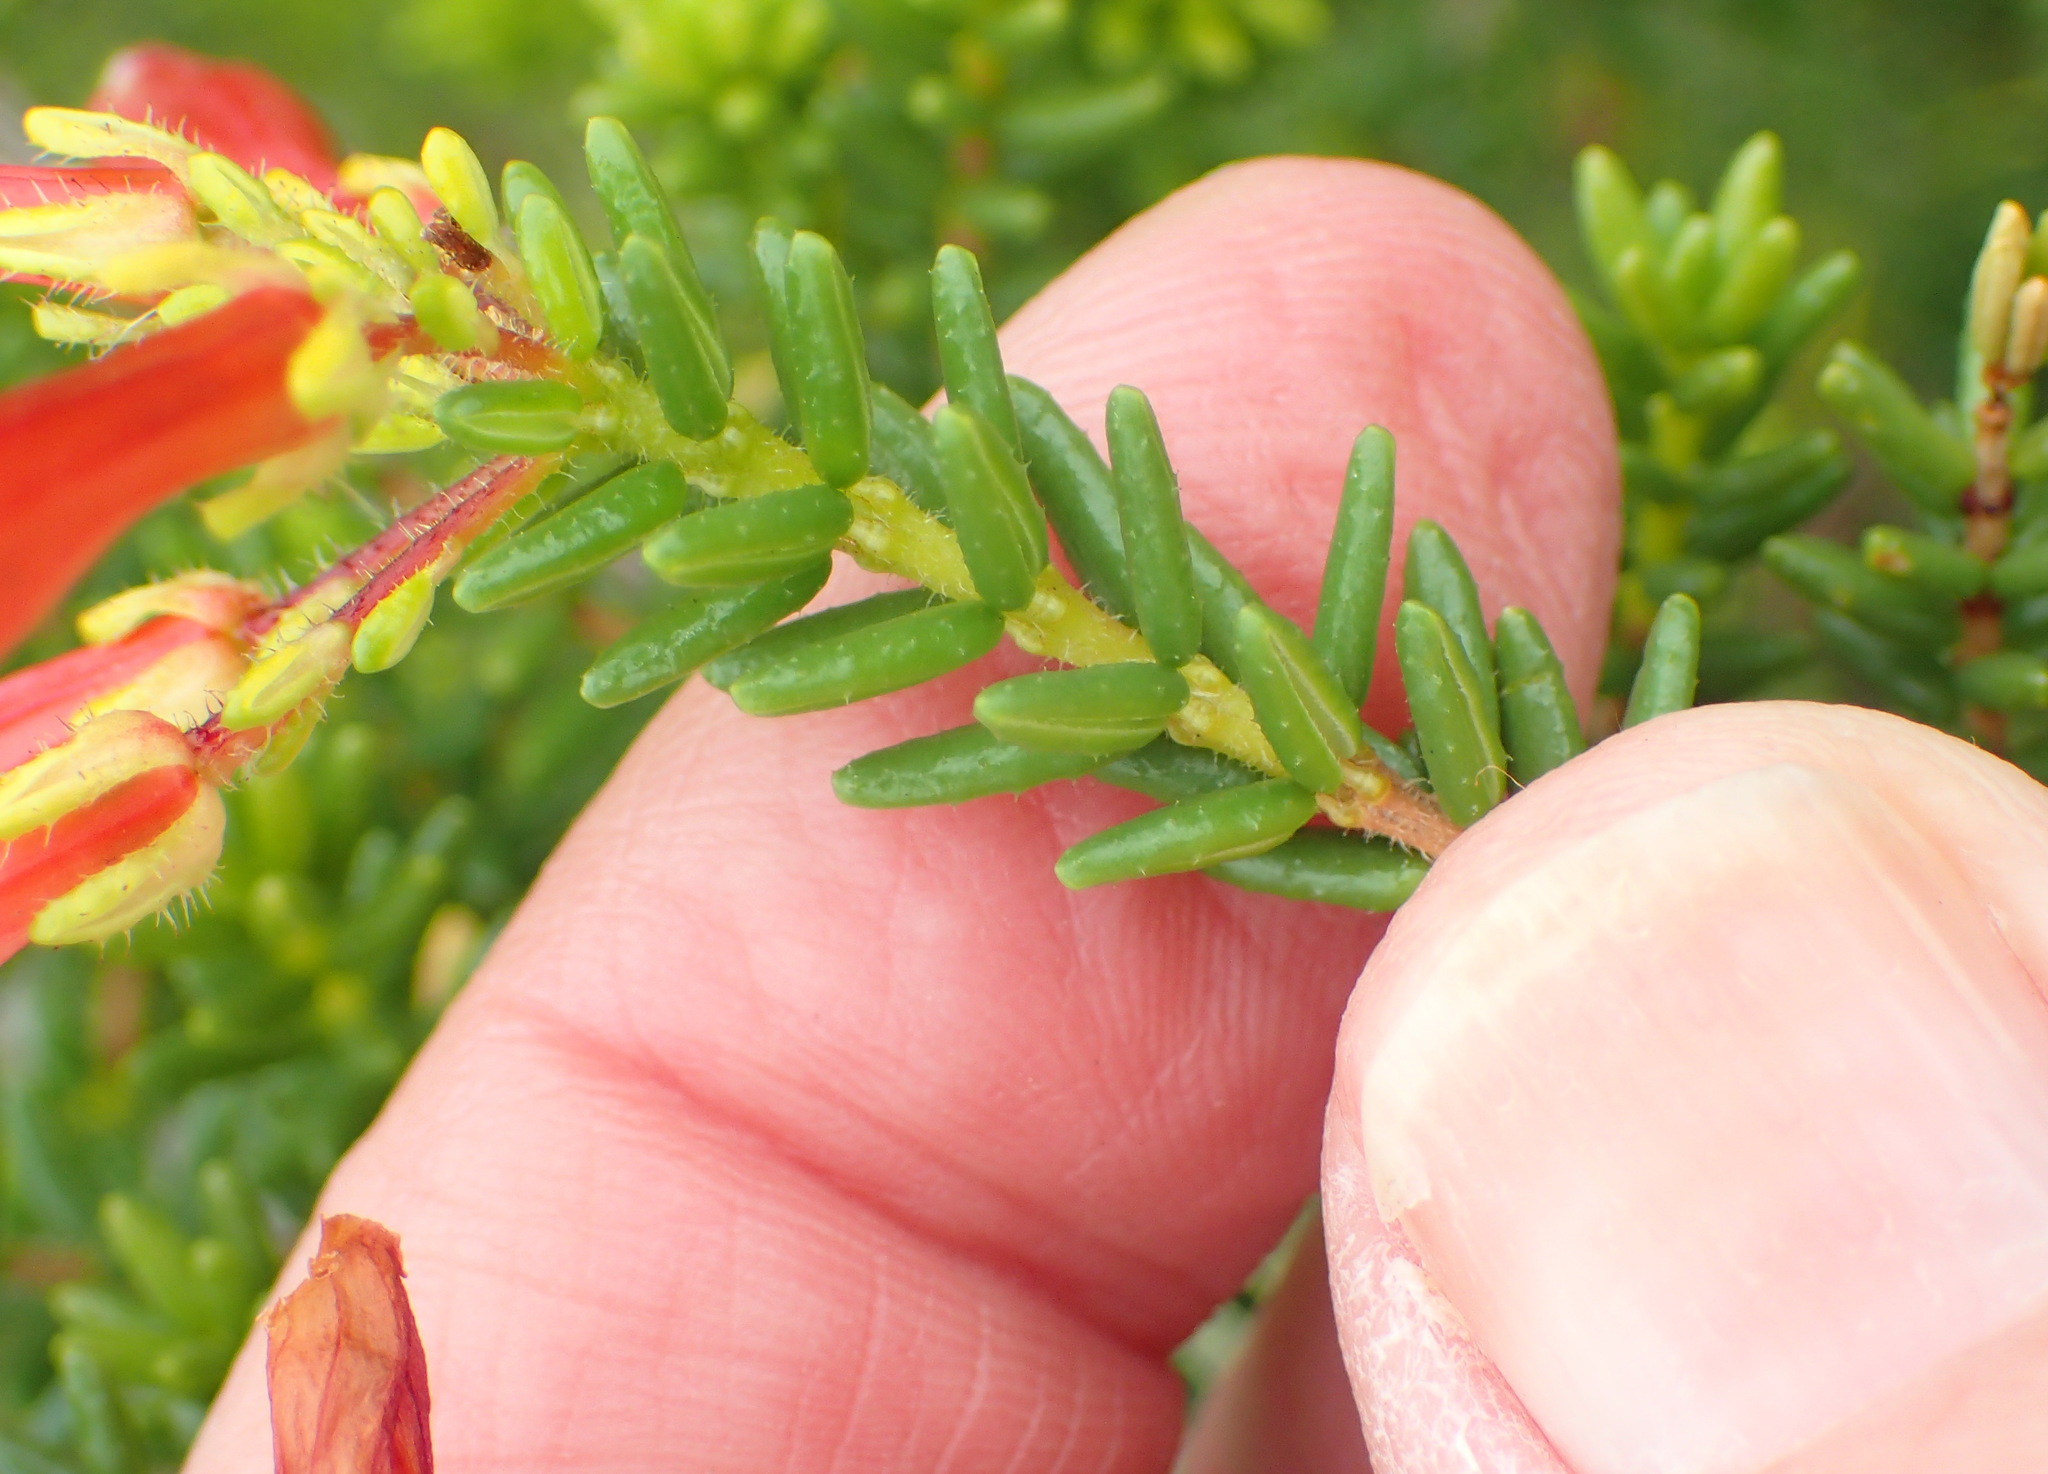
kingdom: Plantae
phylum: Tracheophyta
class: Magnoliopsida
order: Ericales
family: Ericaceae
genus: Erica
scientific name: Erica glandulosa
